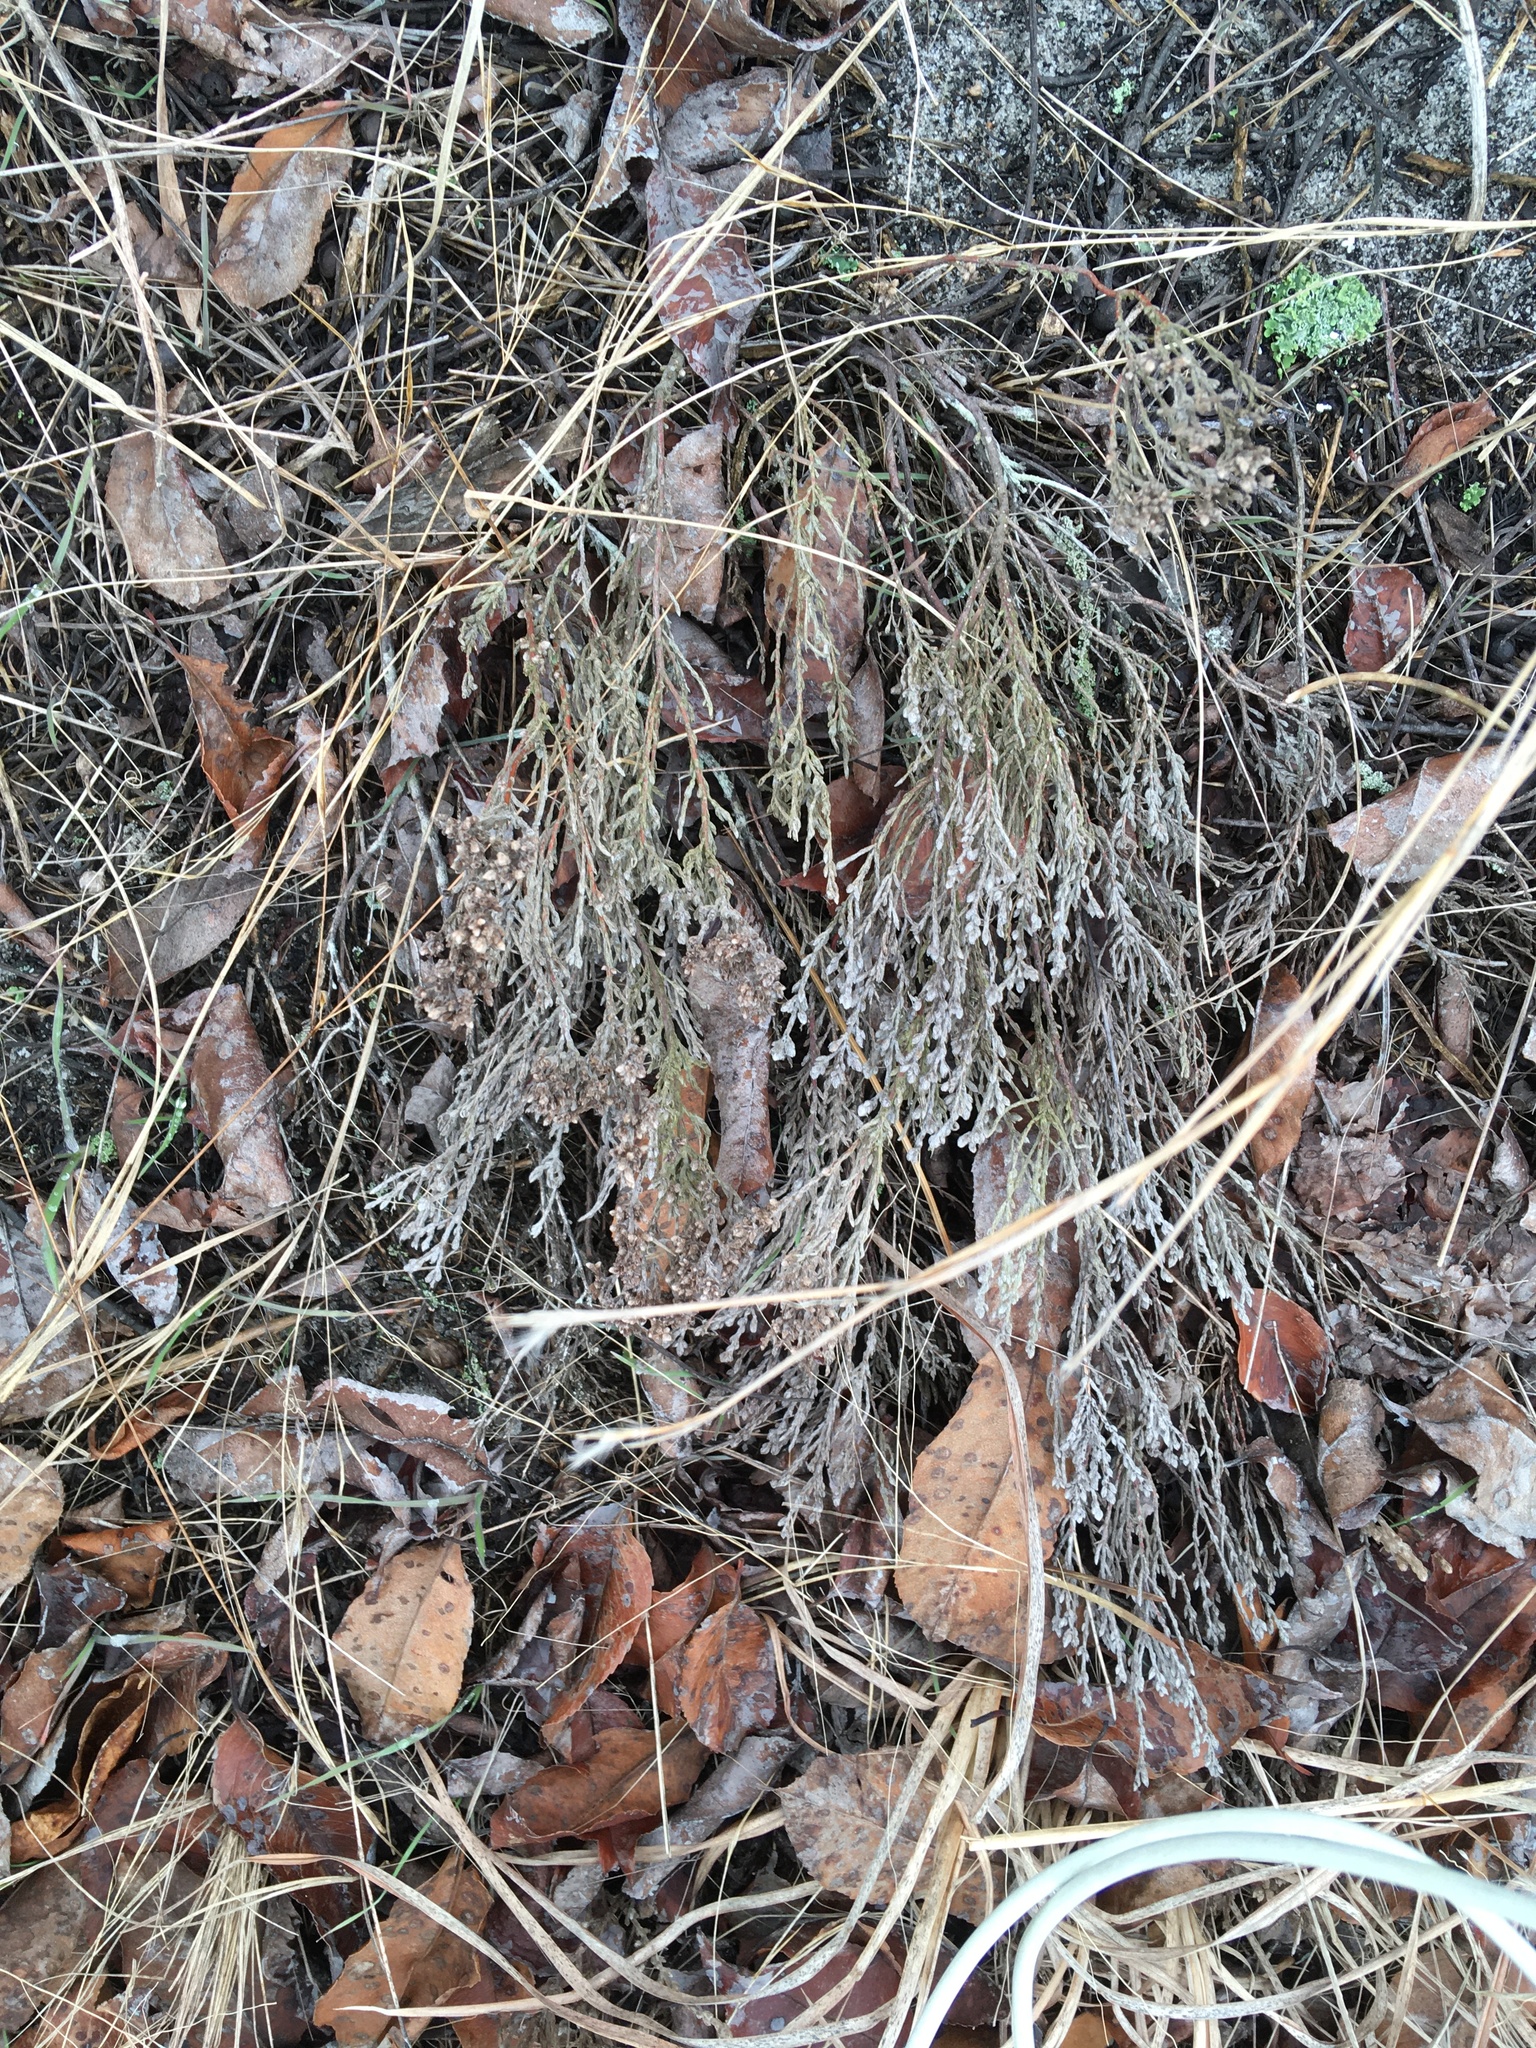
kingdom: Plantae
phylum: Tracheophyta
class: Magnoliopsida
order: Malvales
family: Cistaceae
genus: Hudsonia
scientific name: Hudsonia tomentosa
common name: Beach-heath
